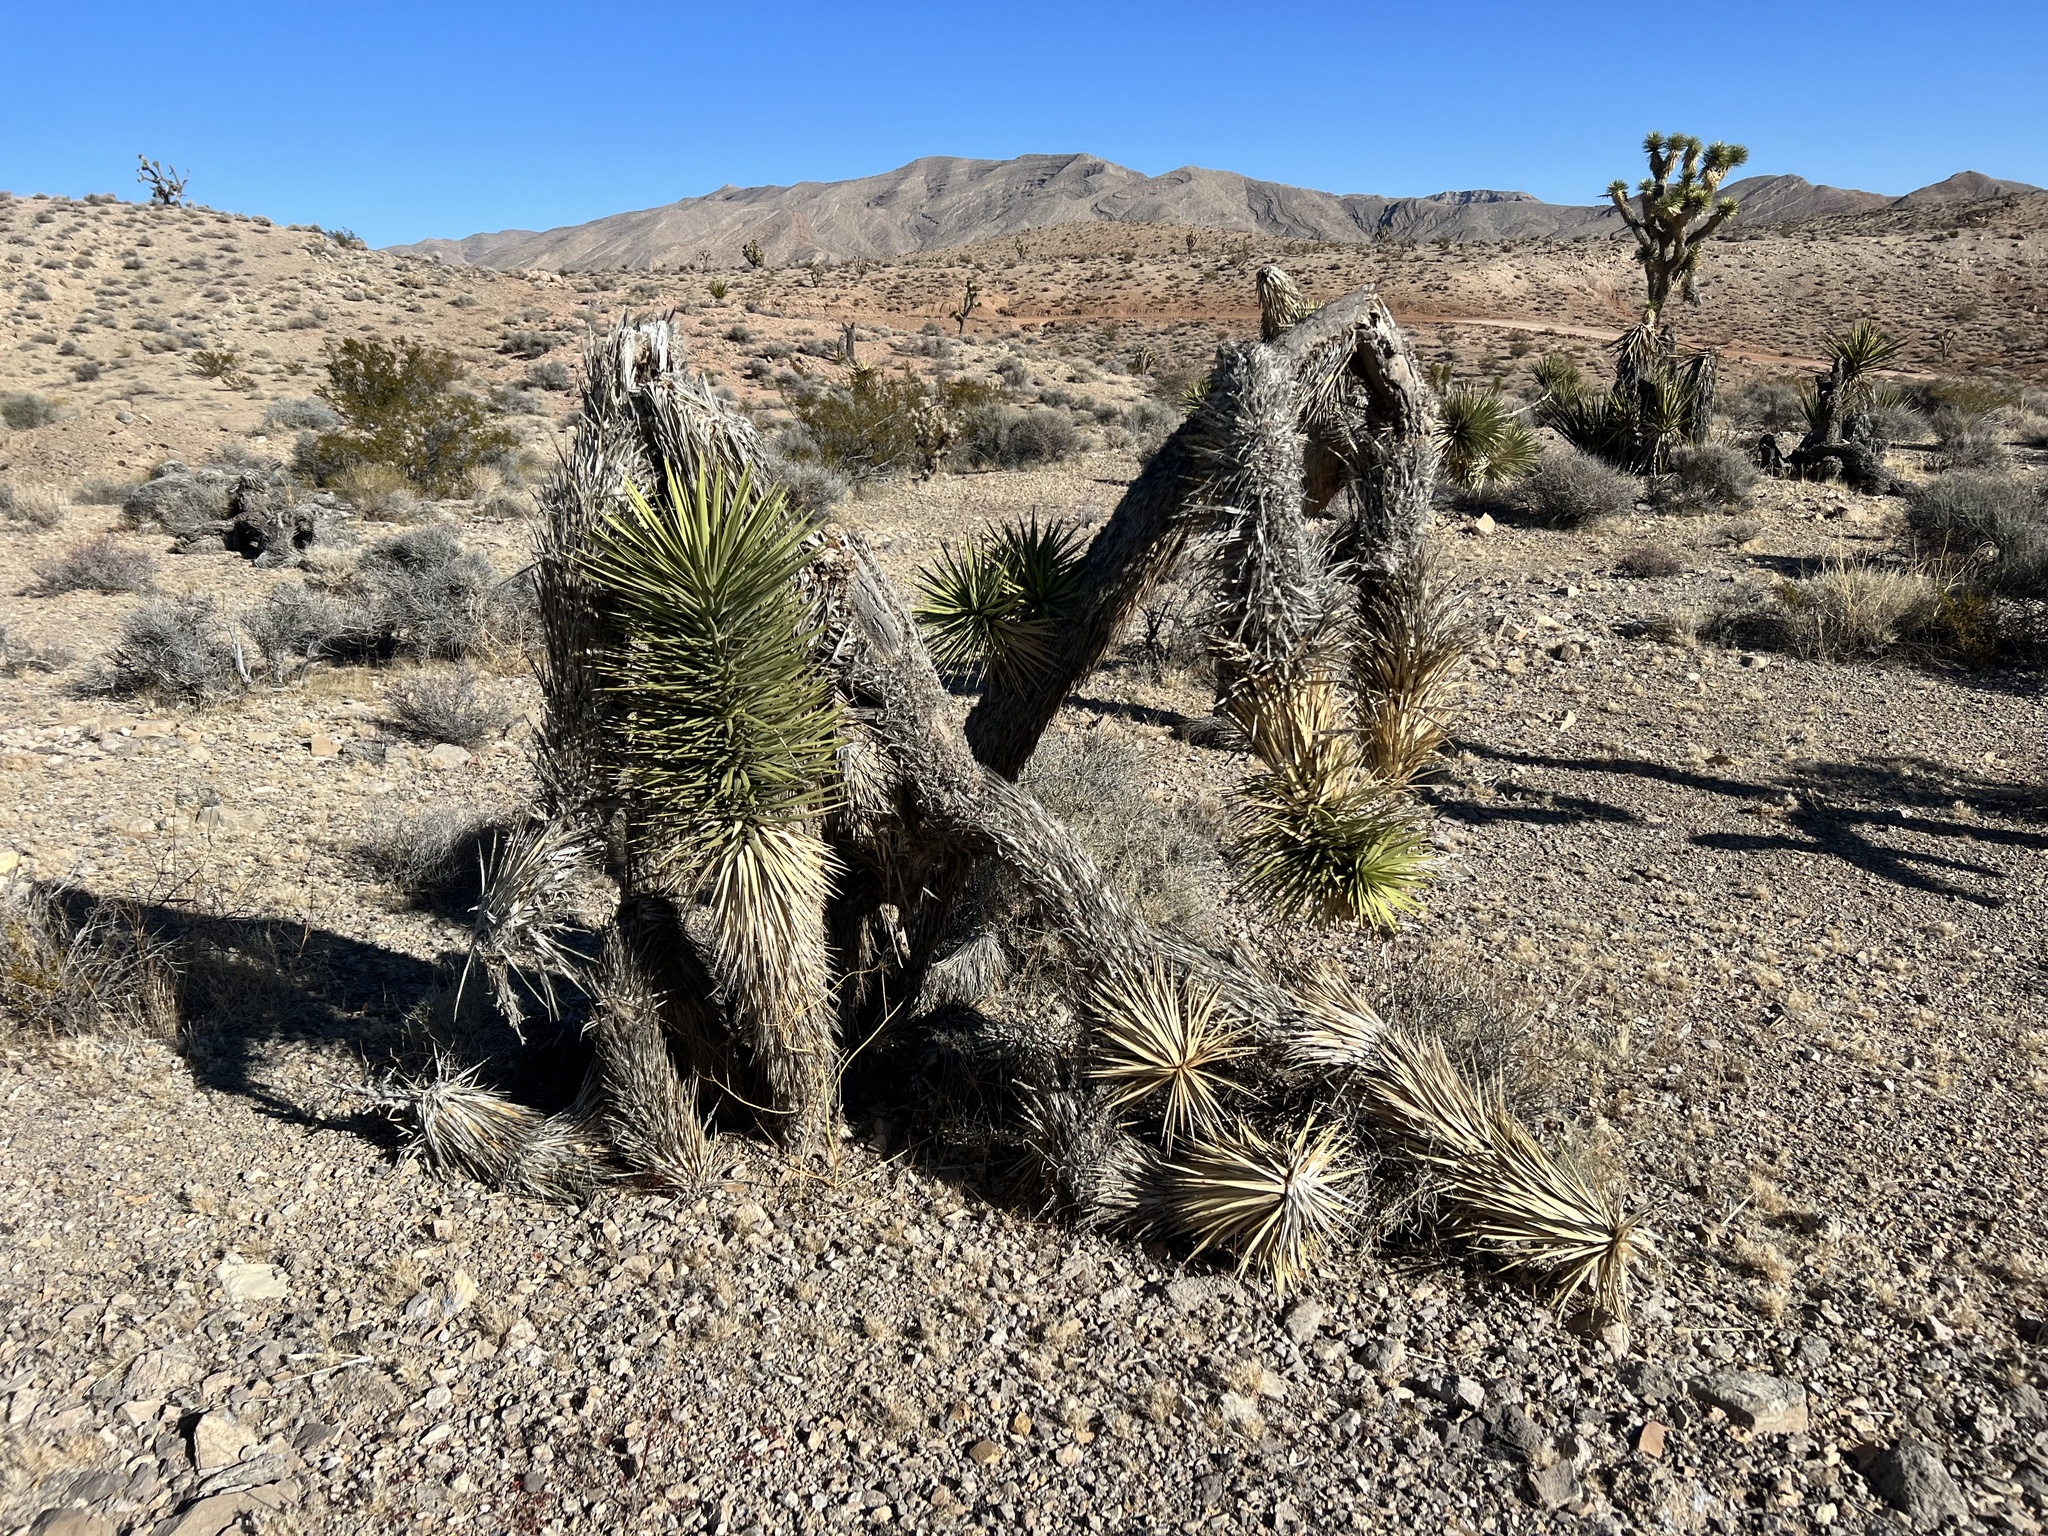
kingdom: Plantae
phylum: Tracheophyta
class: Liliopsida
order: Asparagales
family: Asparagaceae
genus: Yucca
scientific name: Yucca brevifolia
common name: Joshua tree
